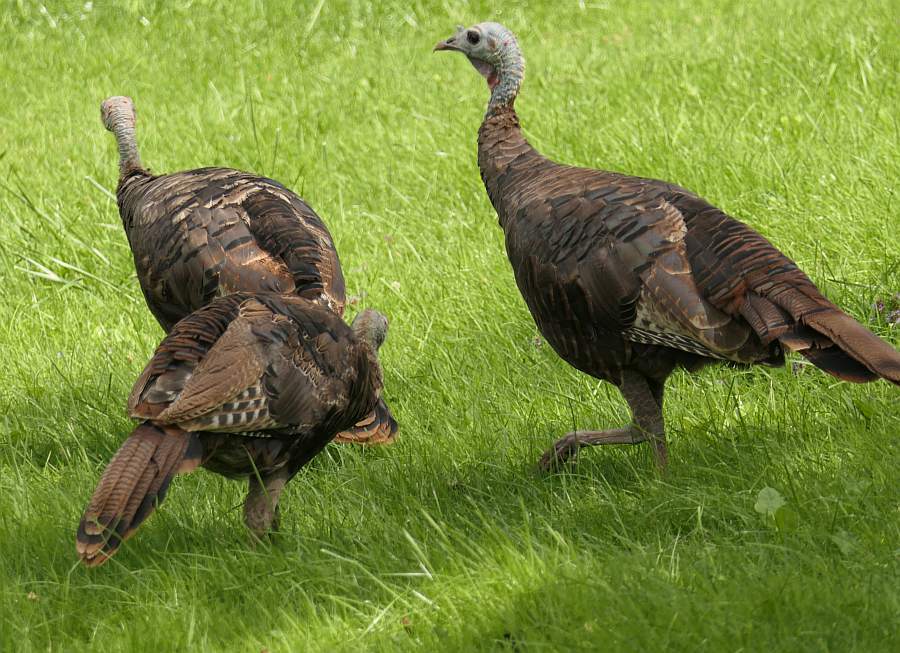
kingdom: Animalia
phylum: Chordata
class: Aves
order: Galliformes
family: Phasianidae
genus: Meleagris
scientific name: Meleagris gallopavo
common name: Wild turkey
